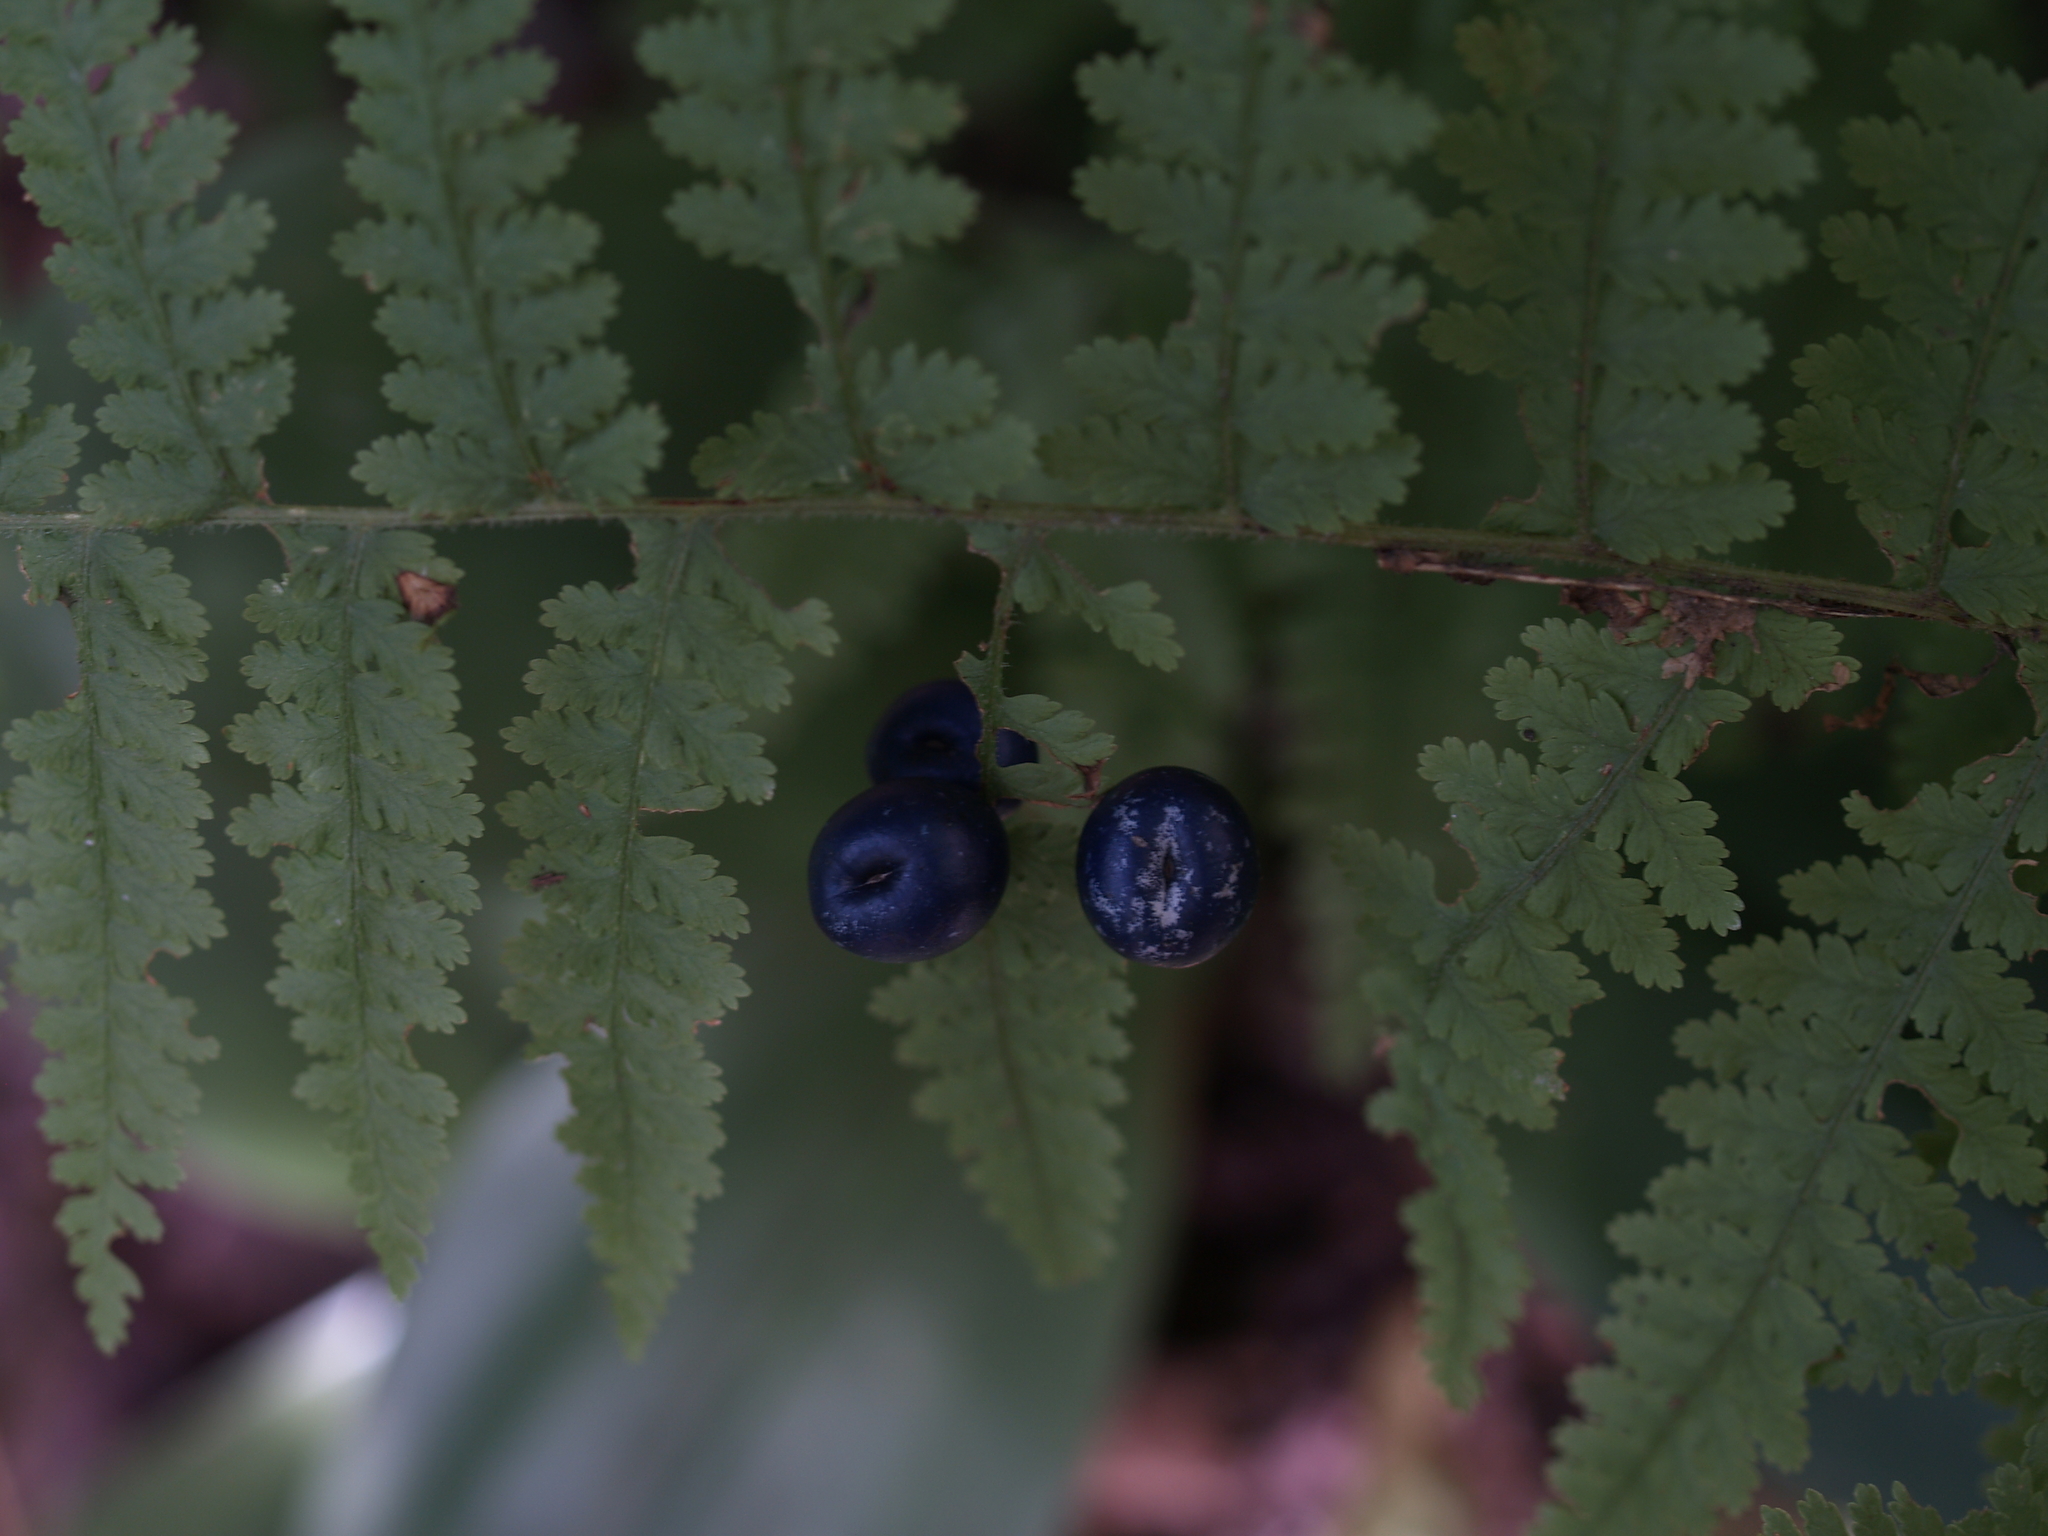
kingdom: Plantae
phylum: Tracheophyta
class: Polypodiopsida
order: Polypodiales
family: Dennstaedtiaceae
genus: Sitobolium
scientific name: Sitobolium punctilobum
